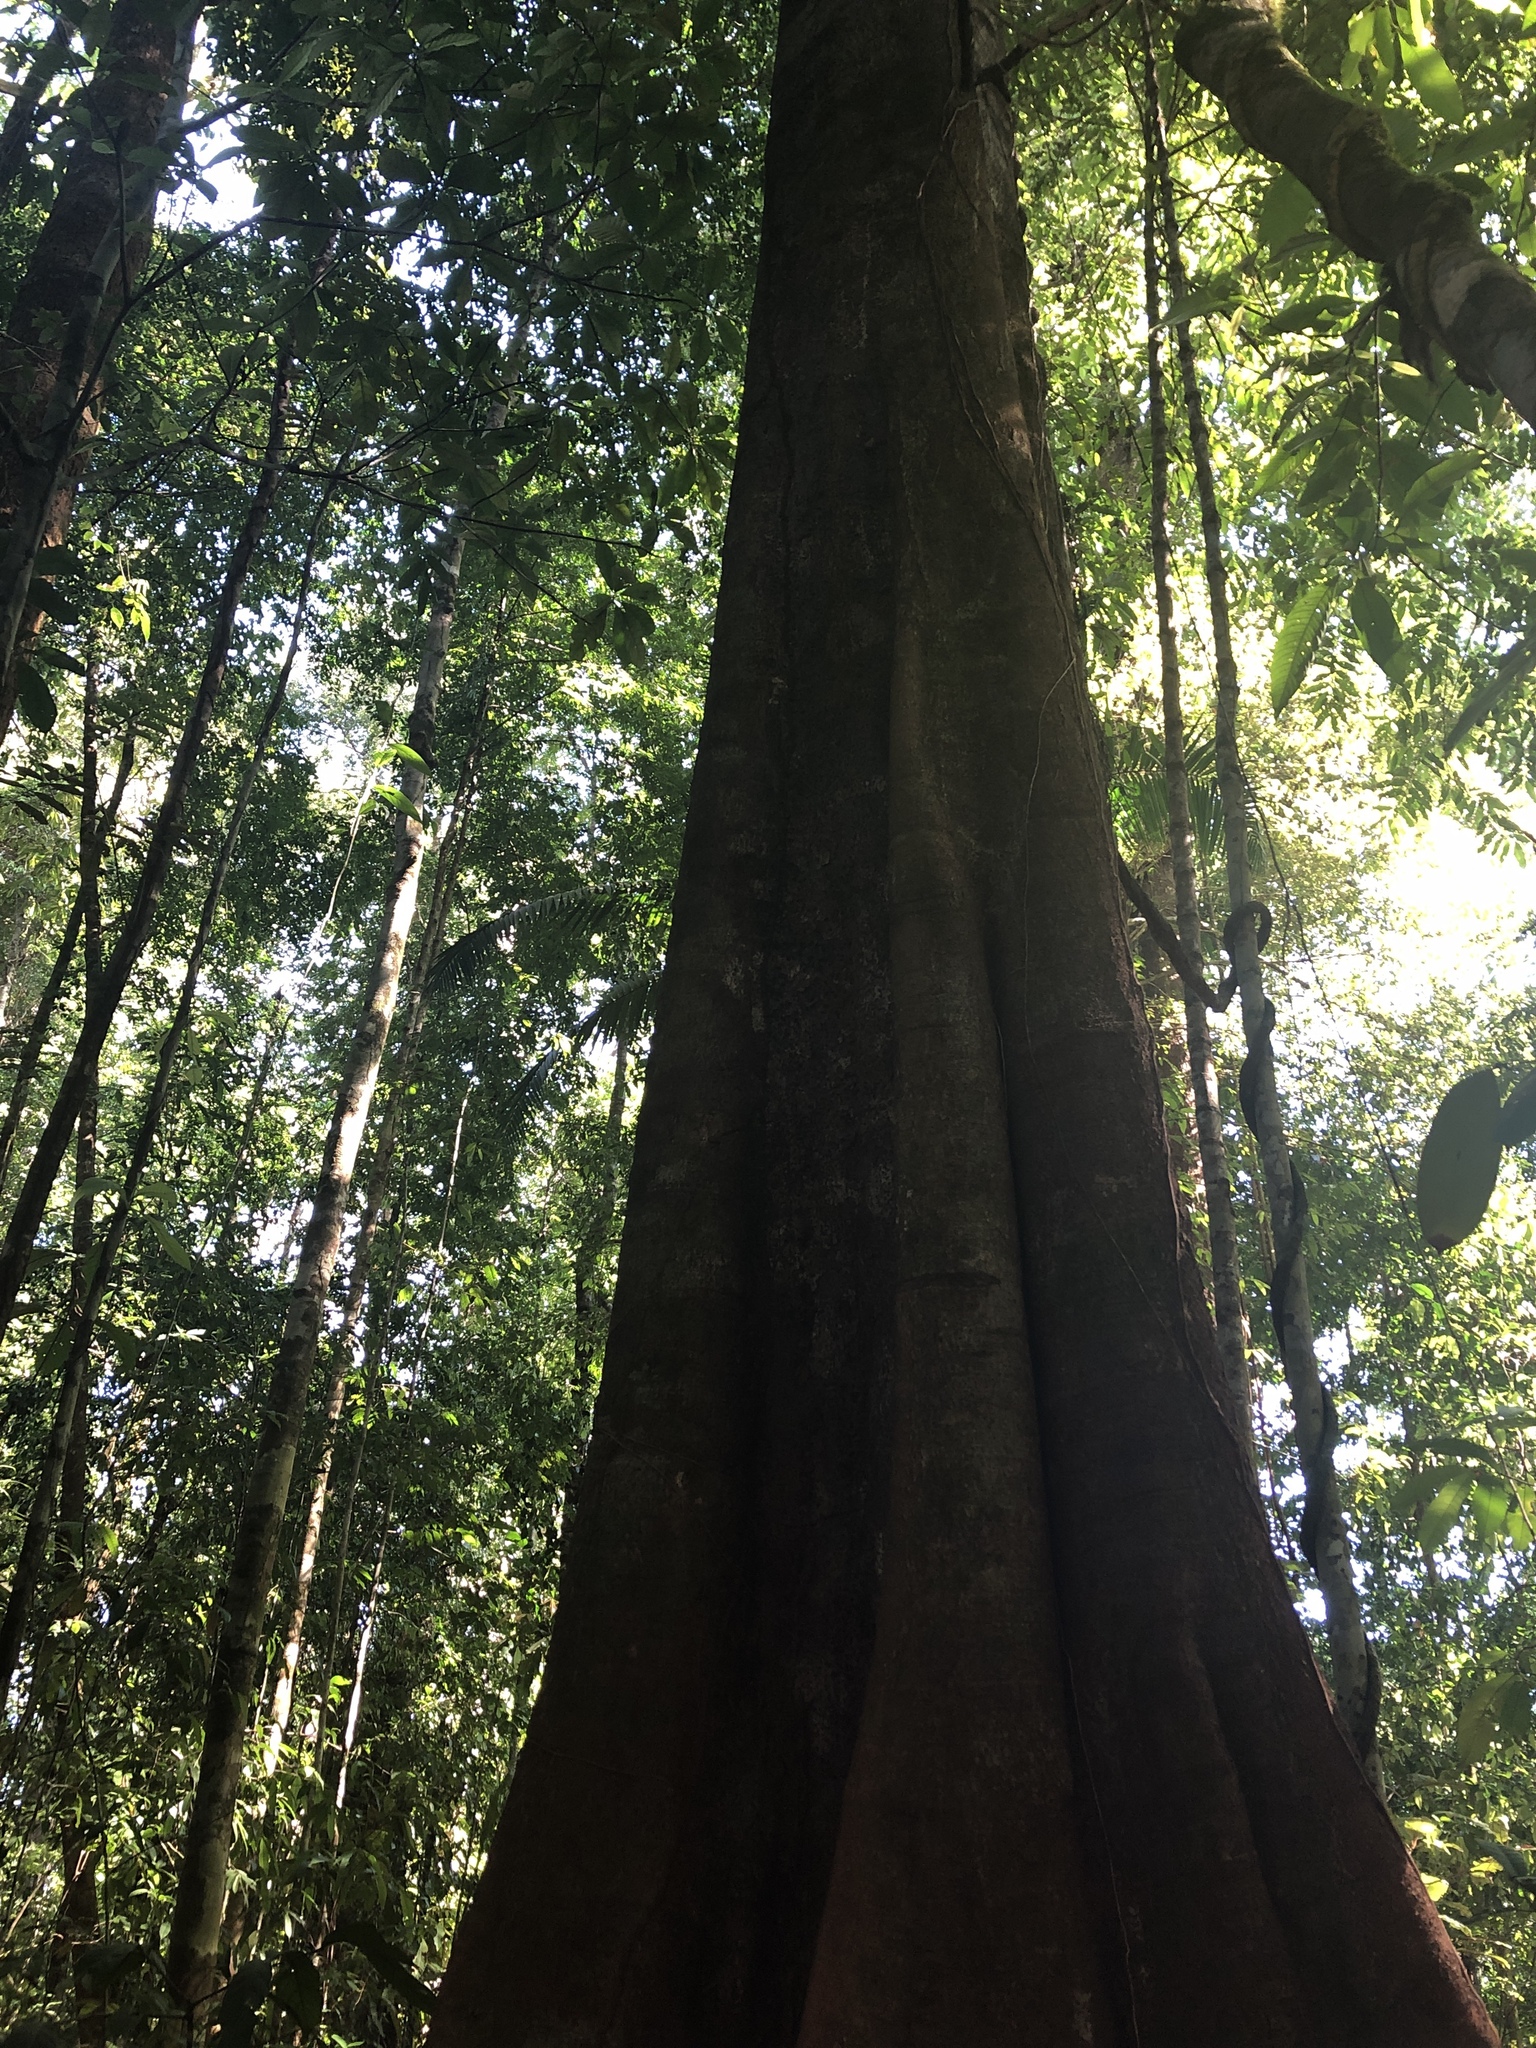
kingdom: Plantae
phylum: Tracheophyta
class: Magnoliopsida
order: Fabales
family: Fabaceae
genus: Tachigali
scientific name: Tachigali versicolor
